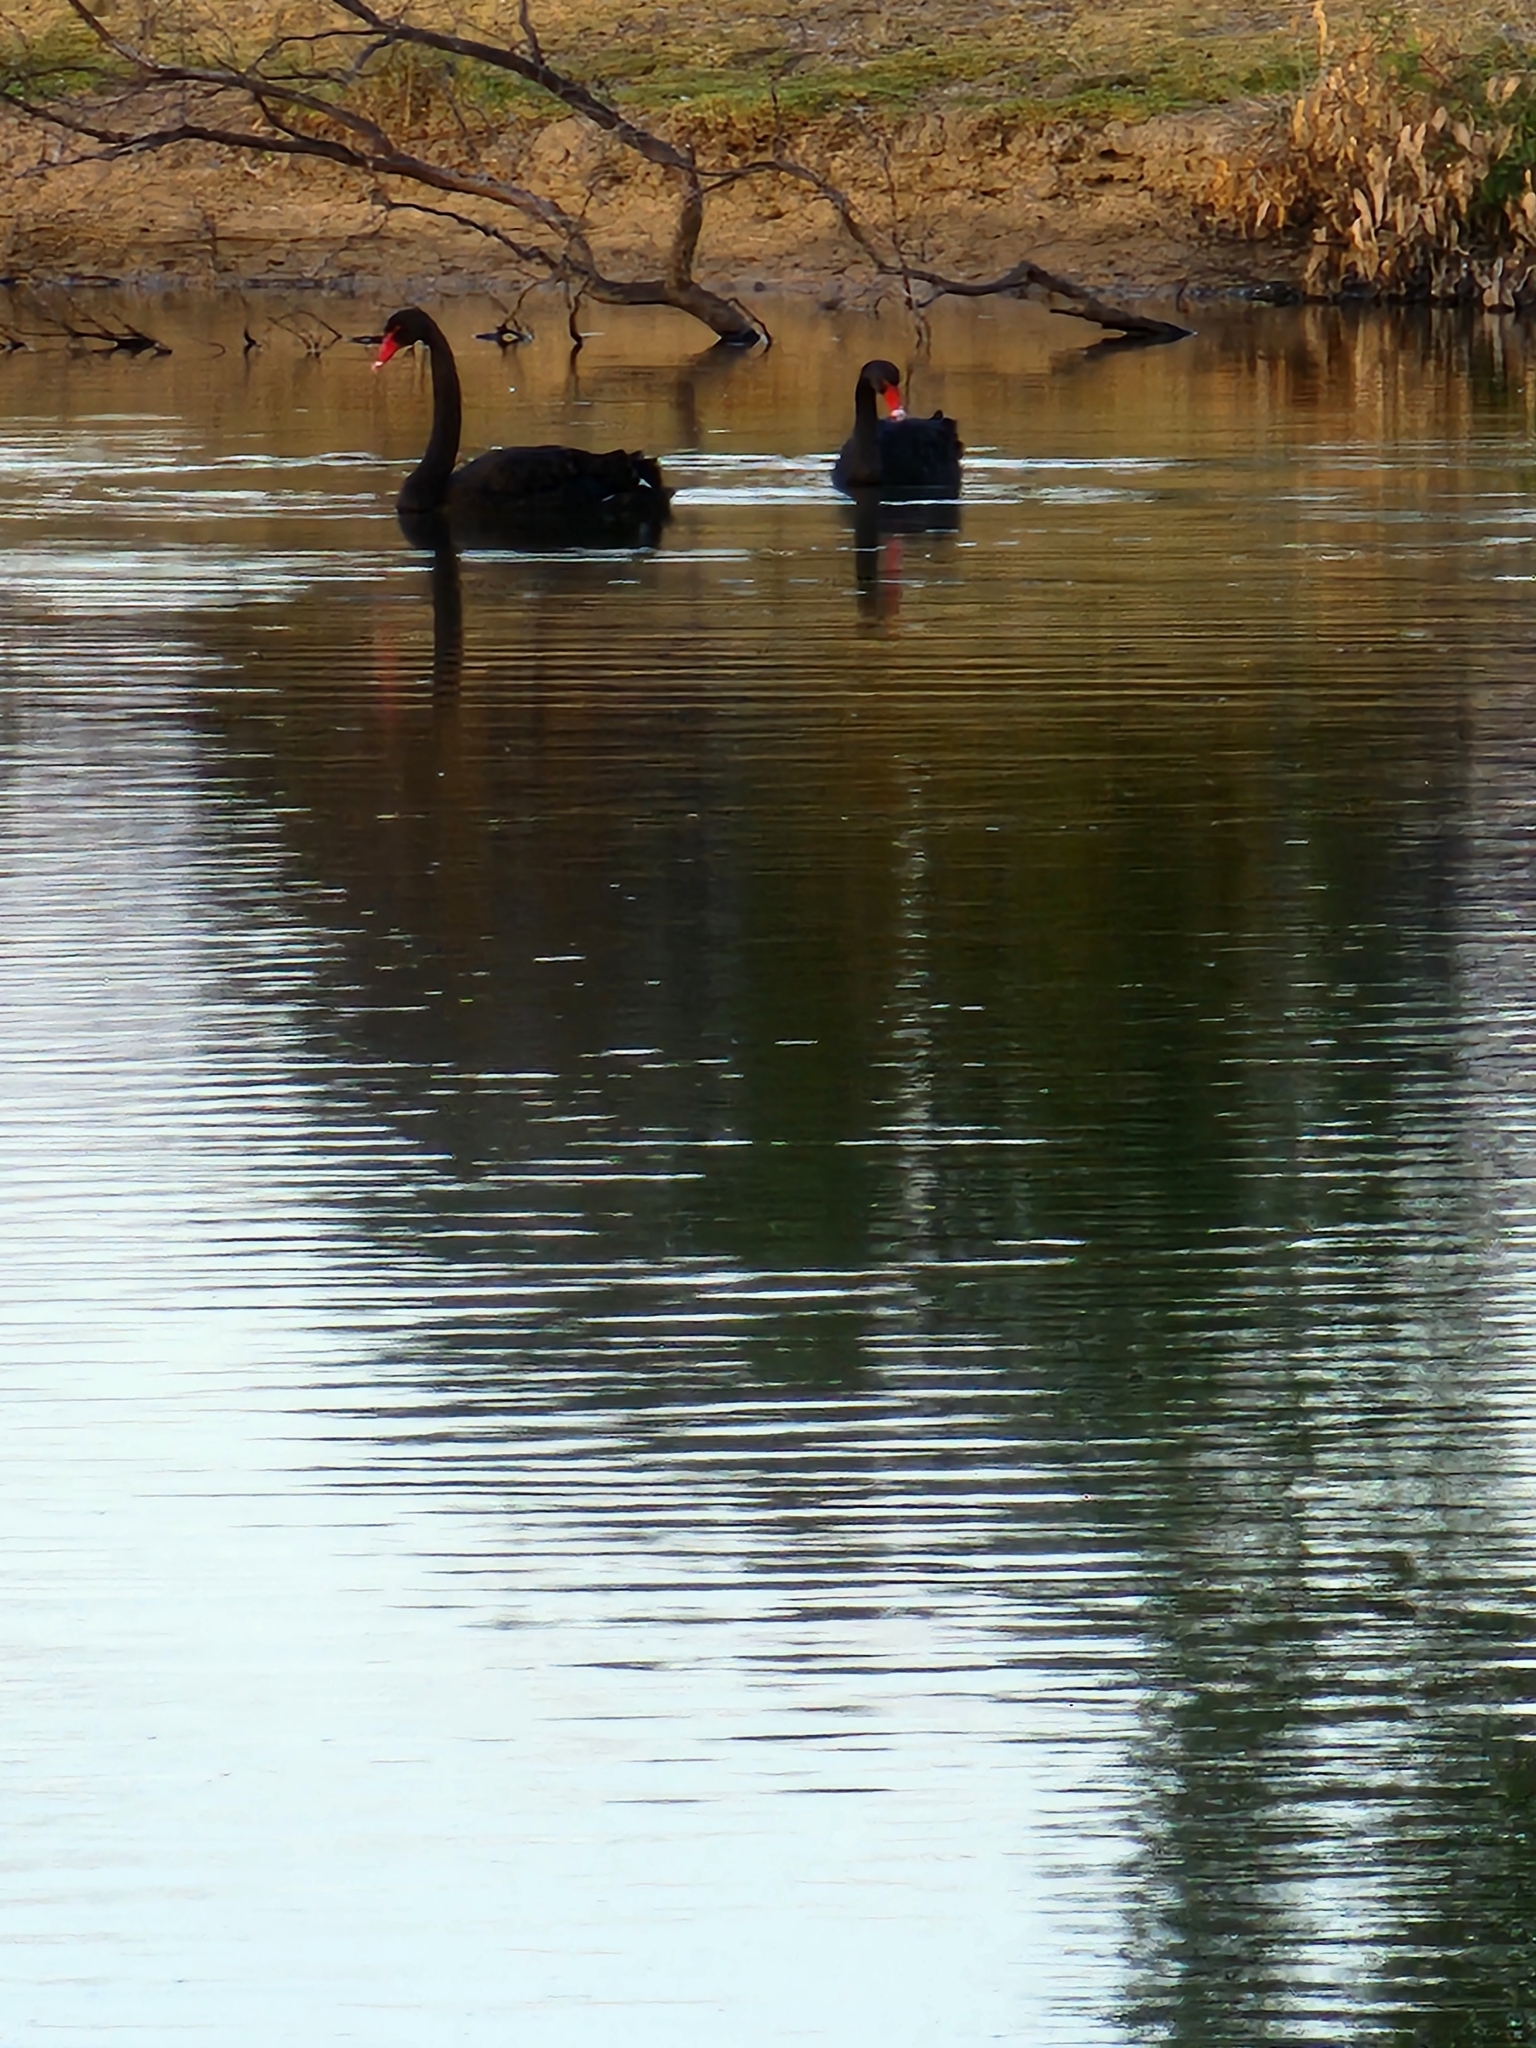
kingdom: Animalia
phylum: Chordata
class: Aves
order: Anseriformes
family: Anatidae
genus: Cygnus
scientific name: Cygnus atratus
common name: Black swan
